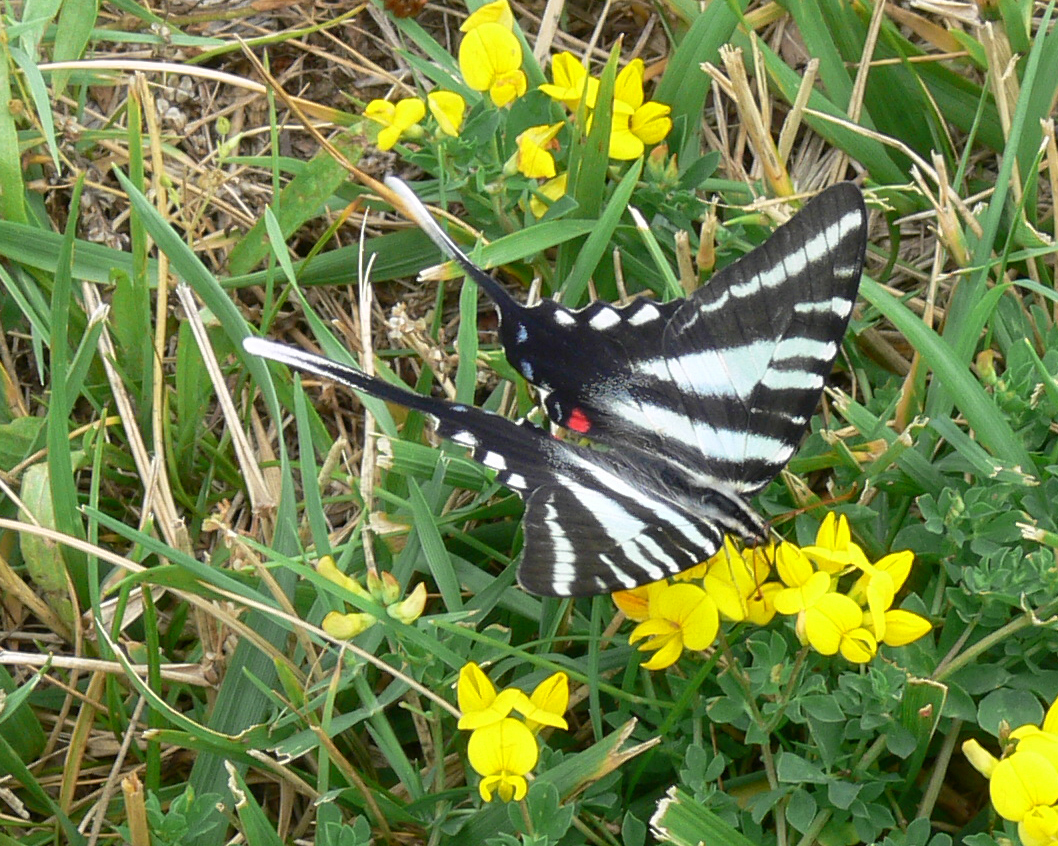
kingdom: Animalia
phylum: Arthropoda
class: Insecta
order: Lepidoptera
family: Papilionidae
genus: Protographium
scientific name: Protographium marcellus
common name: Zebra swallowtail
